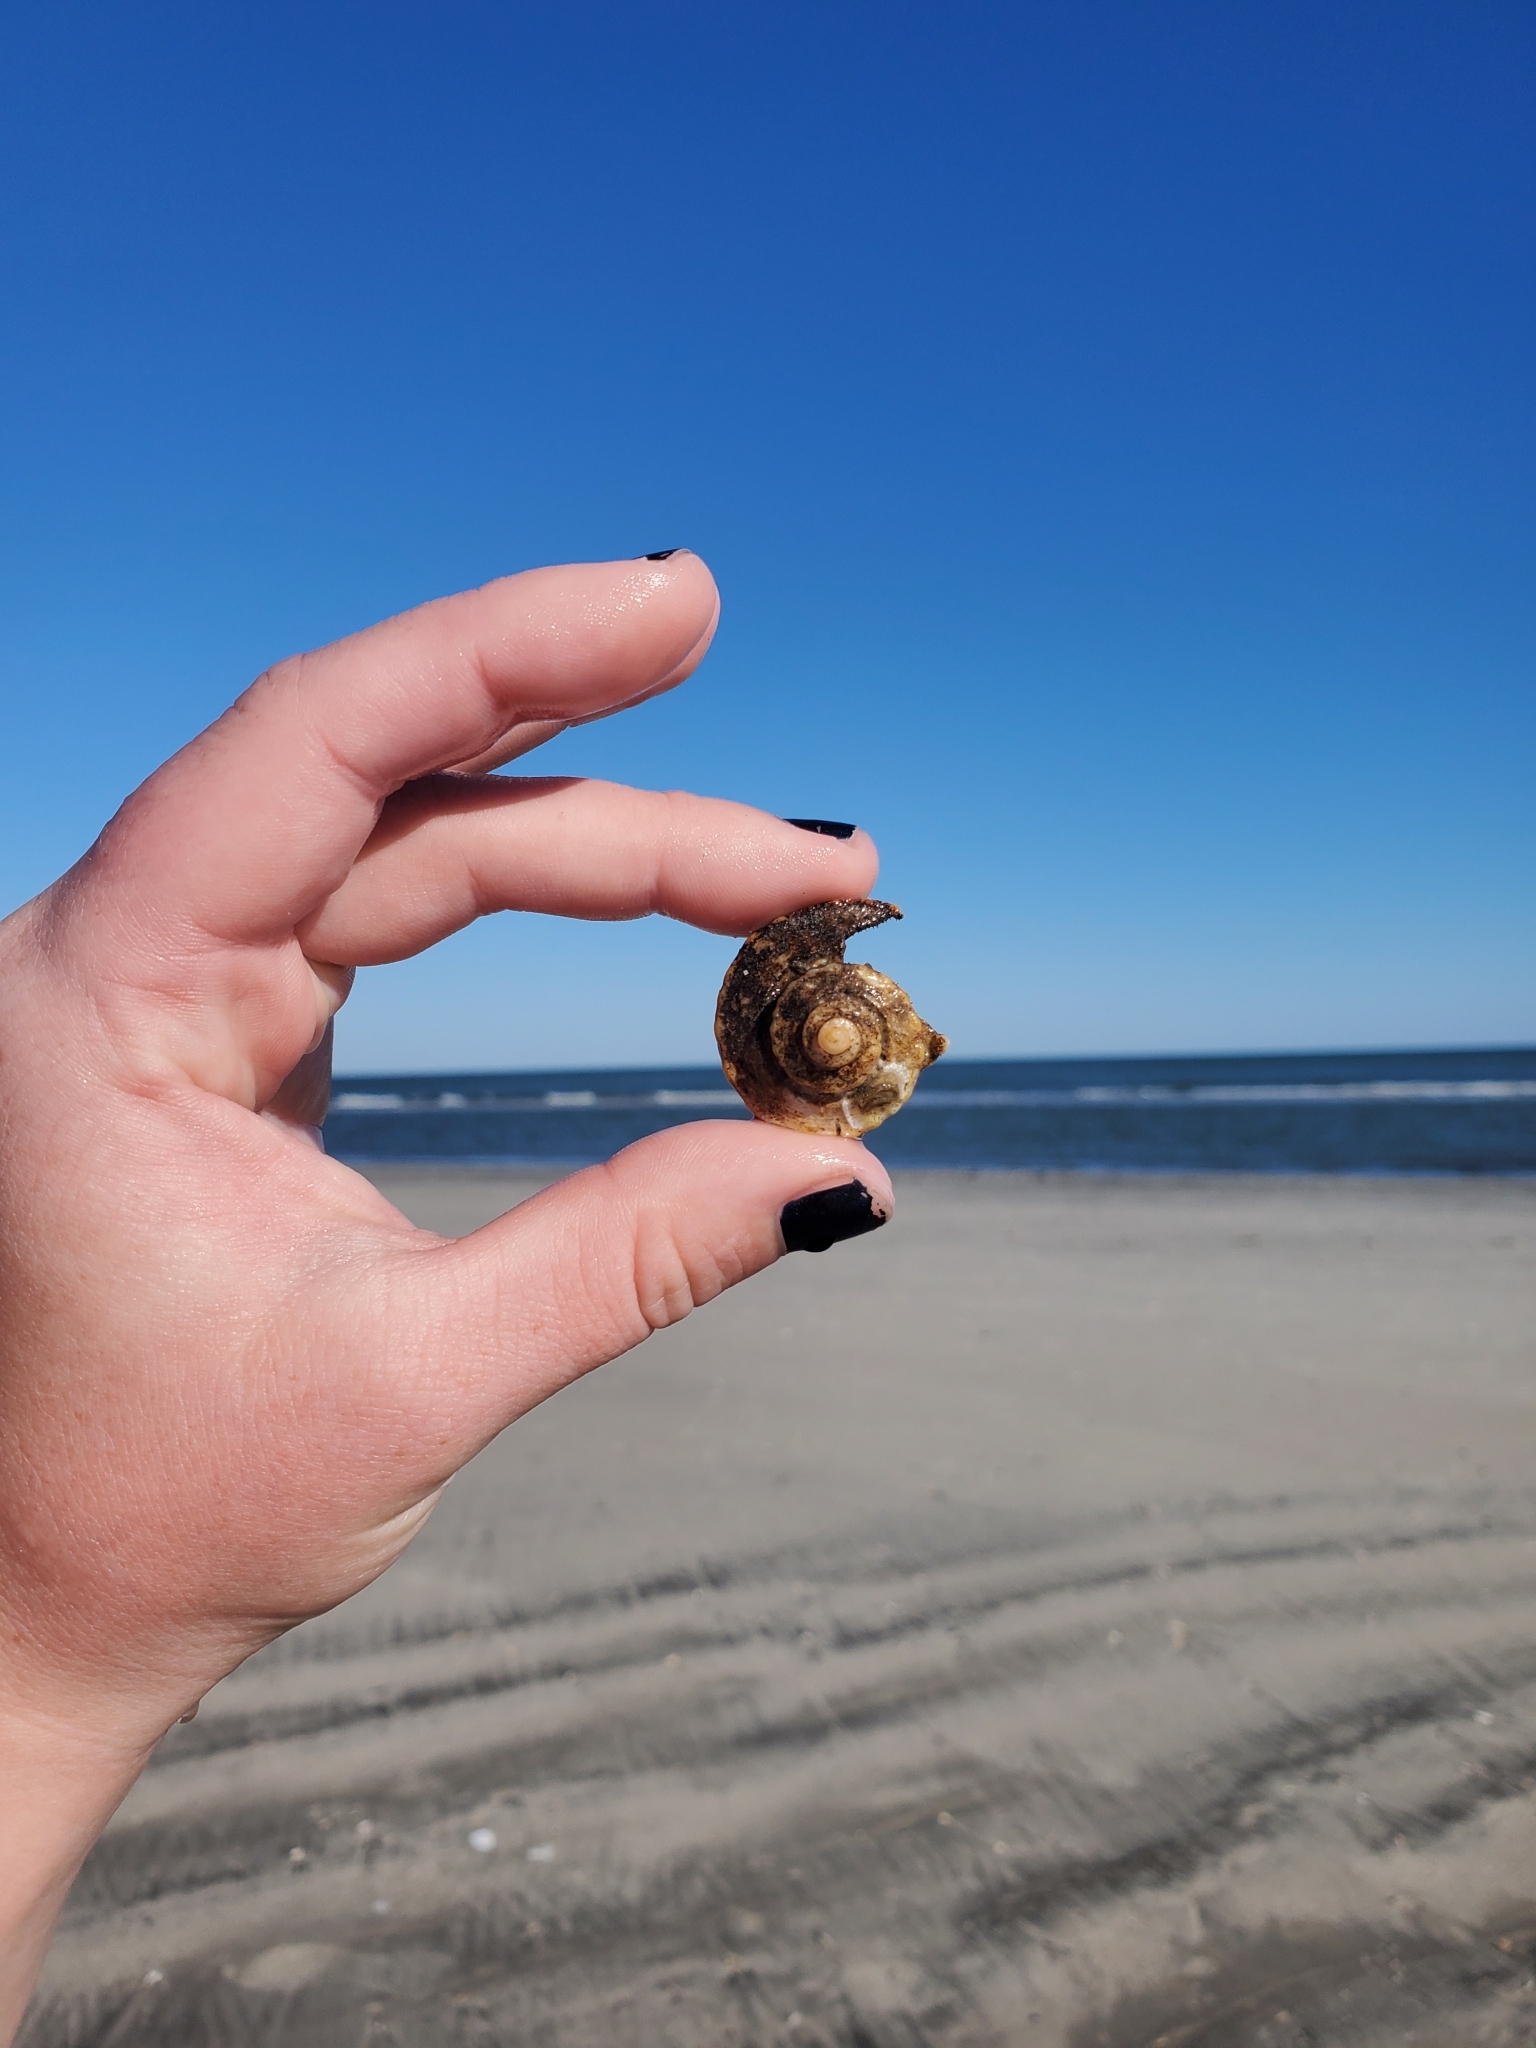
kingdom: Animalia
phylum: Arthropoda
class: Malacostraca
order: Decapoda
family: Paguridae
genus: Pagurus
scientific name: Pagurus pollicaris
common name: Flatclaw hermit
